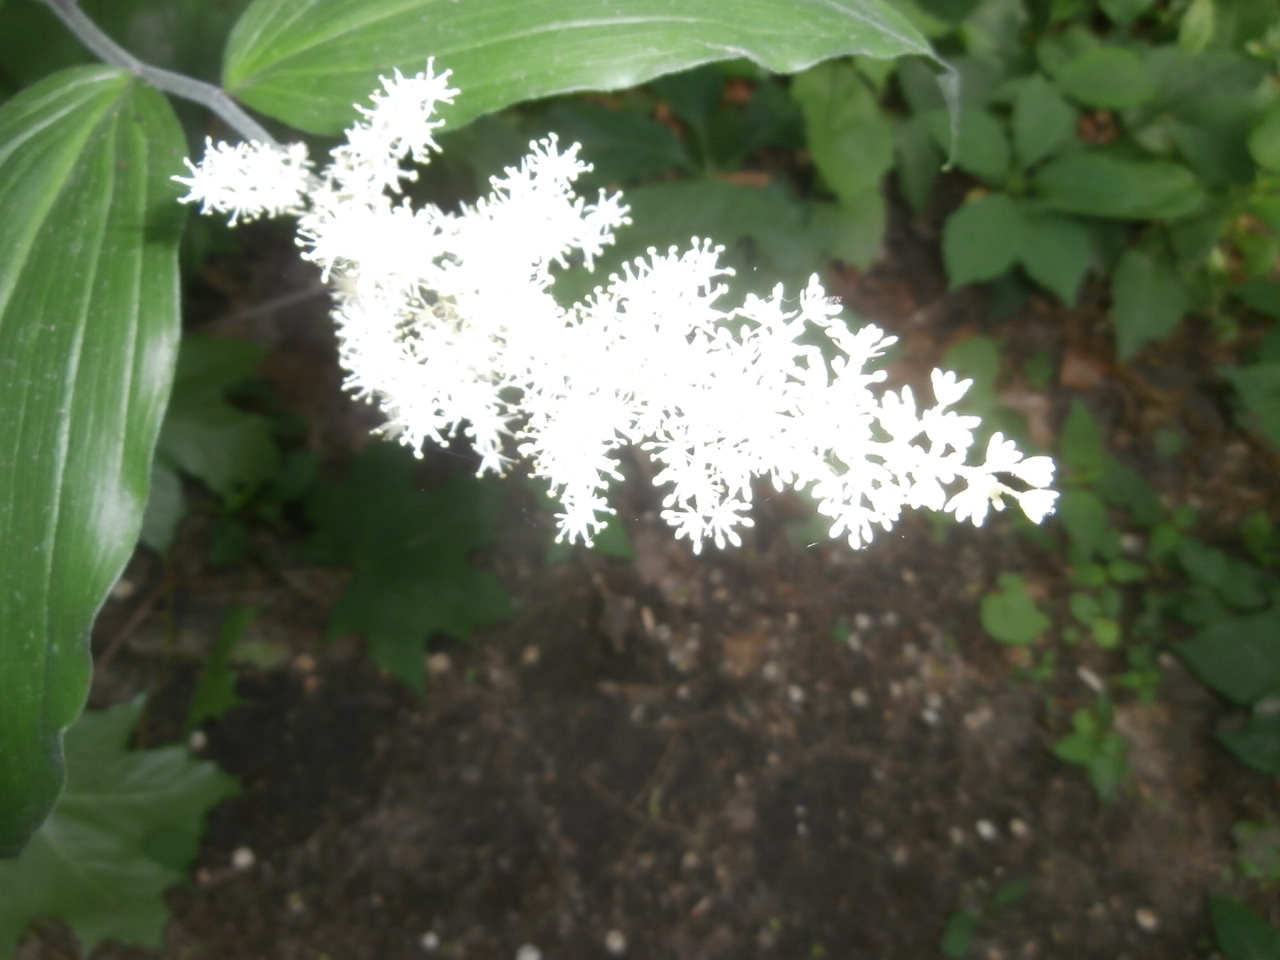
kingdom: Plantae
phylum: Tracheophyta
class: Liliopsida
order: Asparagales
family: Asparagaceae
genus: Maianthemum
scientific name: Maianthemum racemosum
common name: False spikenard
